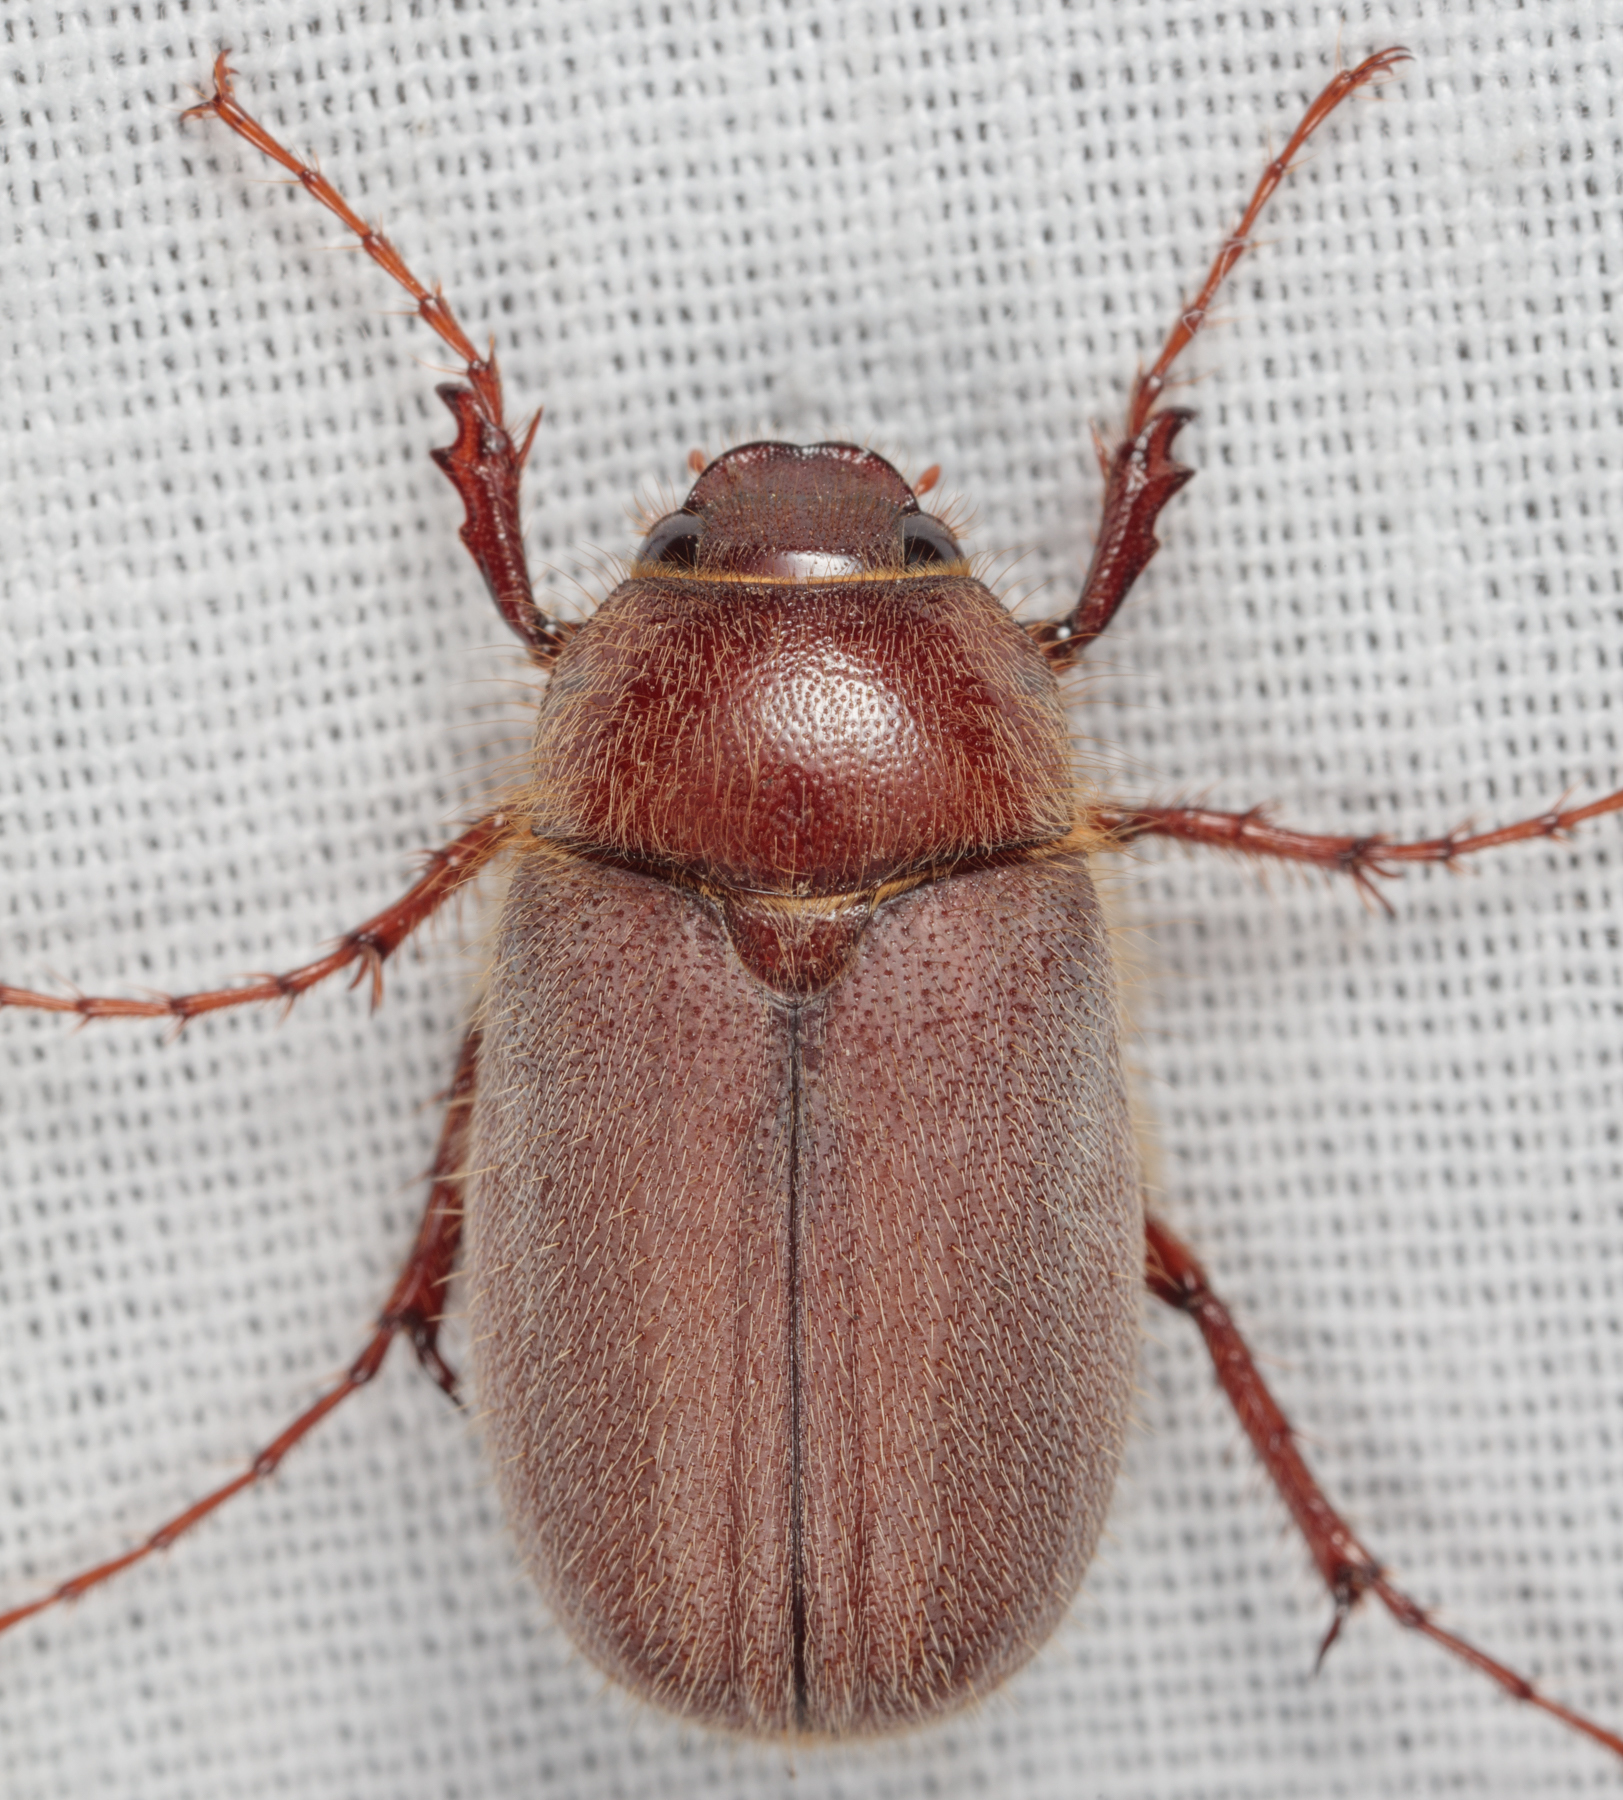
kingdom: Animalia
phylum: Arthropoda
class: Insecta
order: Coleoptera
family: Scarabaeidae
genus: Phyllophaga
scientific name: Phyllophaga rubiginosa
